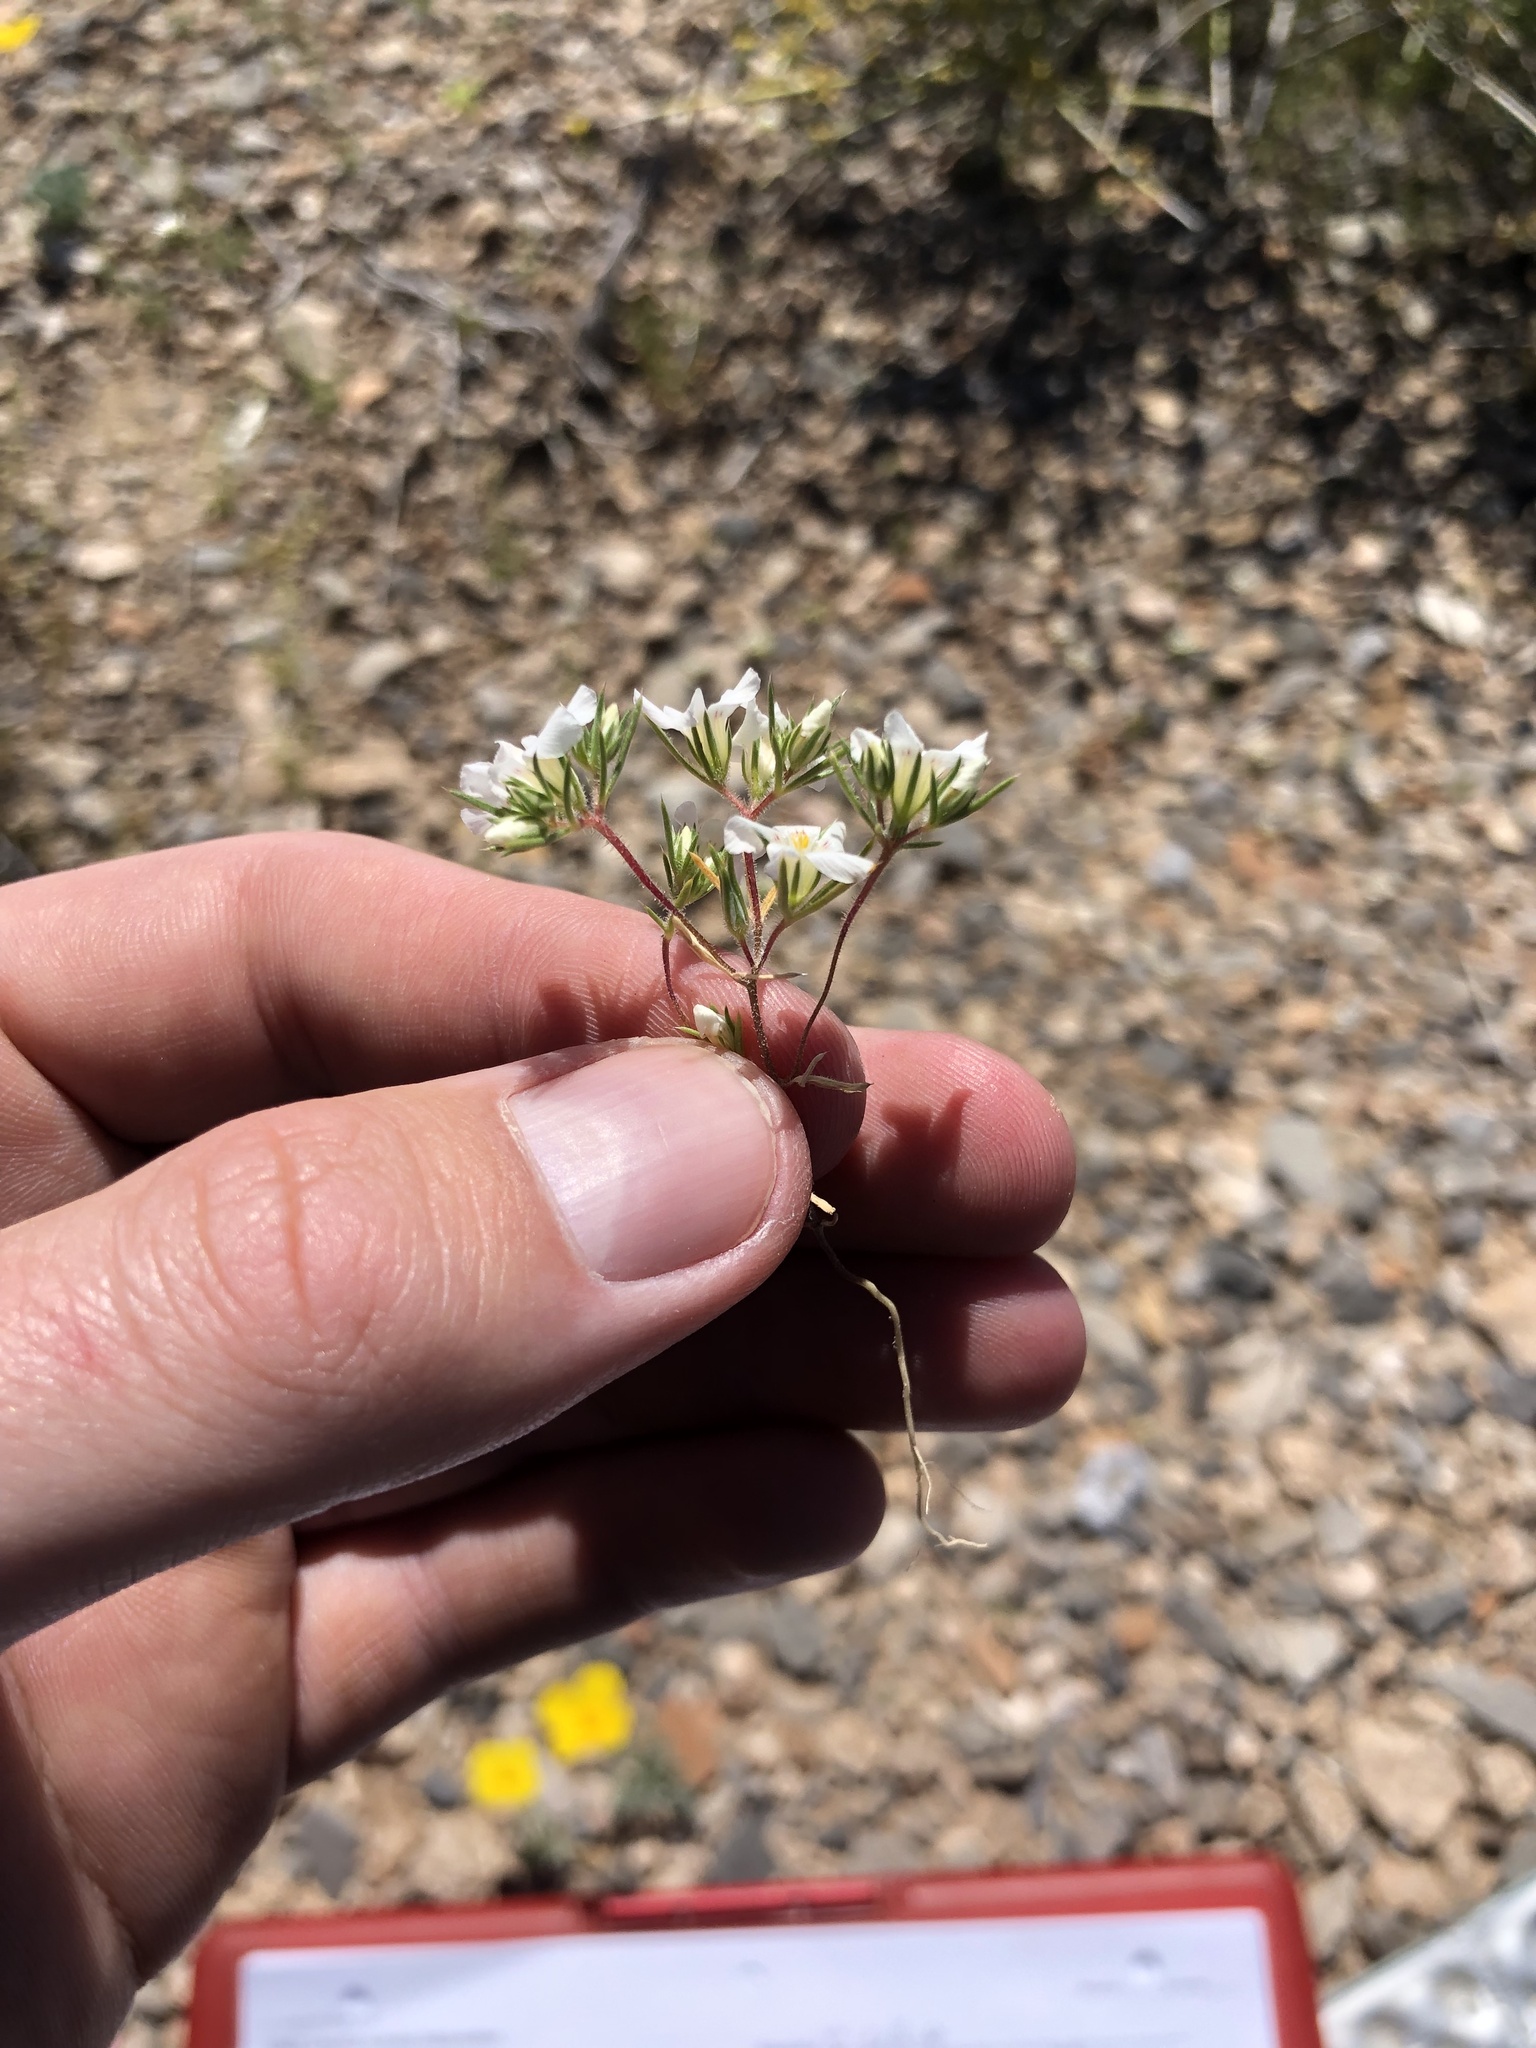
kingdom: Plantae
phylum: Tracheophyta
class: Magnoliopsida
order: Ericales
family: Polemoniaceae
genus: Linanthus
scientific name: Linanthus demissus
